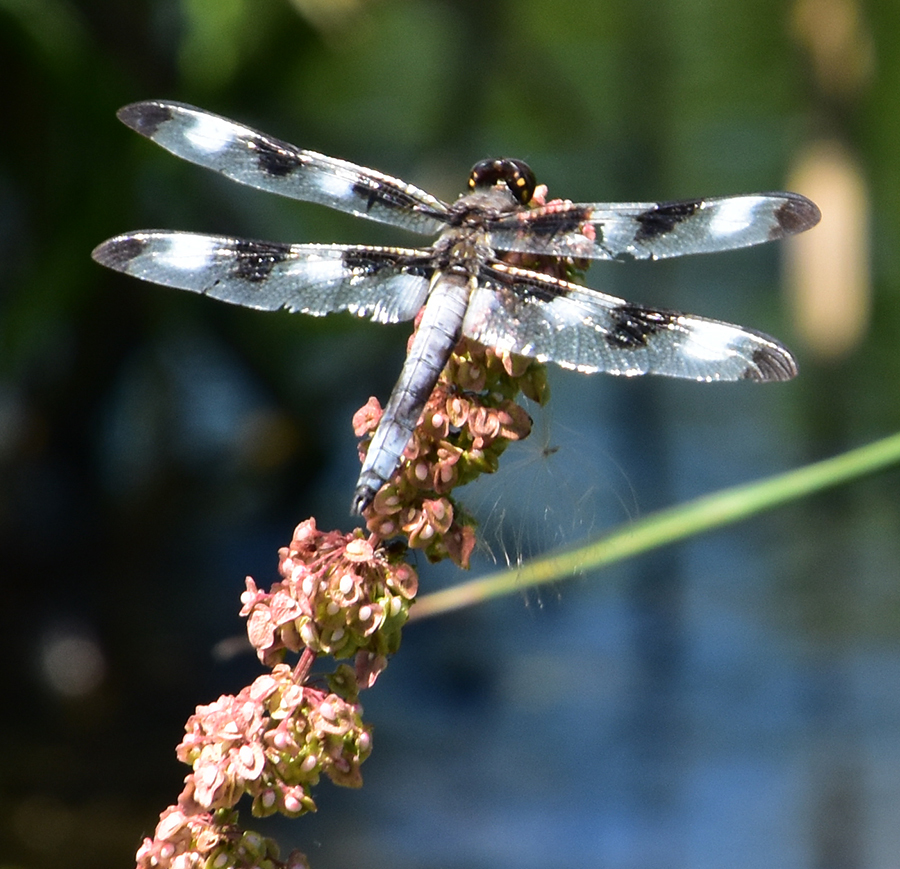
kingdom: Animalia
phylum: Arthropoda
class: Insecta
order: Odonata
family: Libellulidae
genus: Libellula
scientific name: Libellula pulchella
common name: Twelve-spotted skimmer
